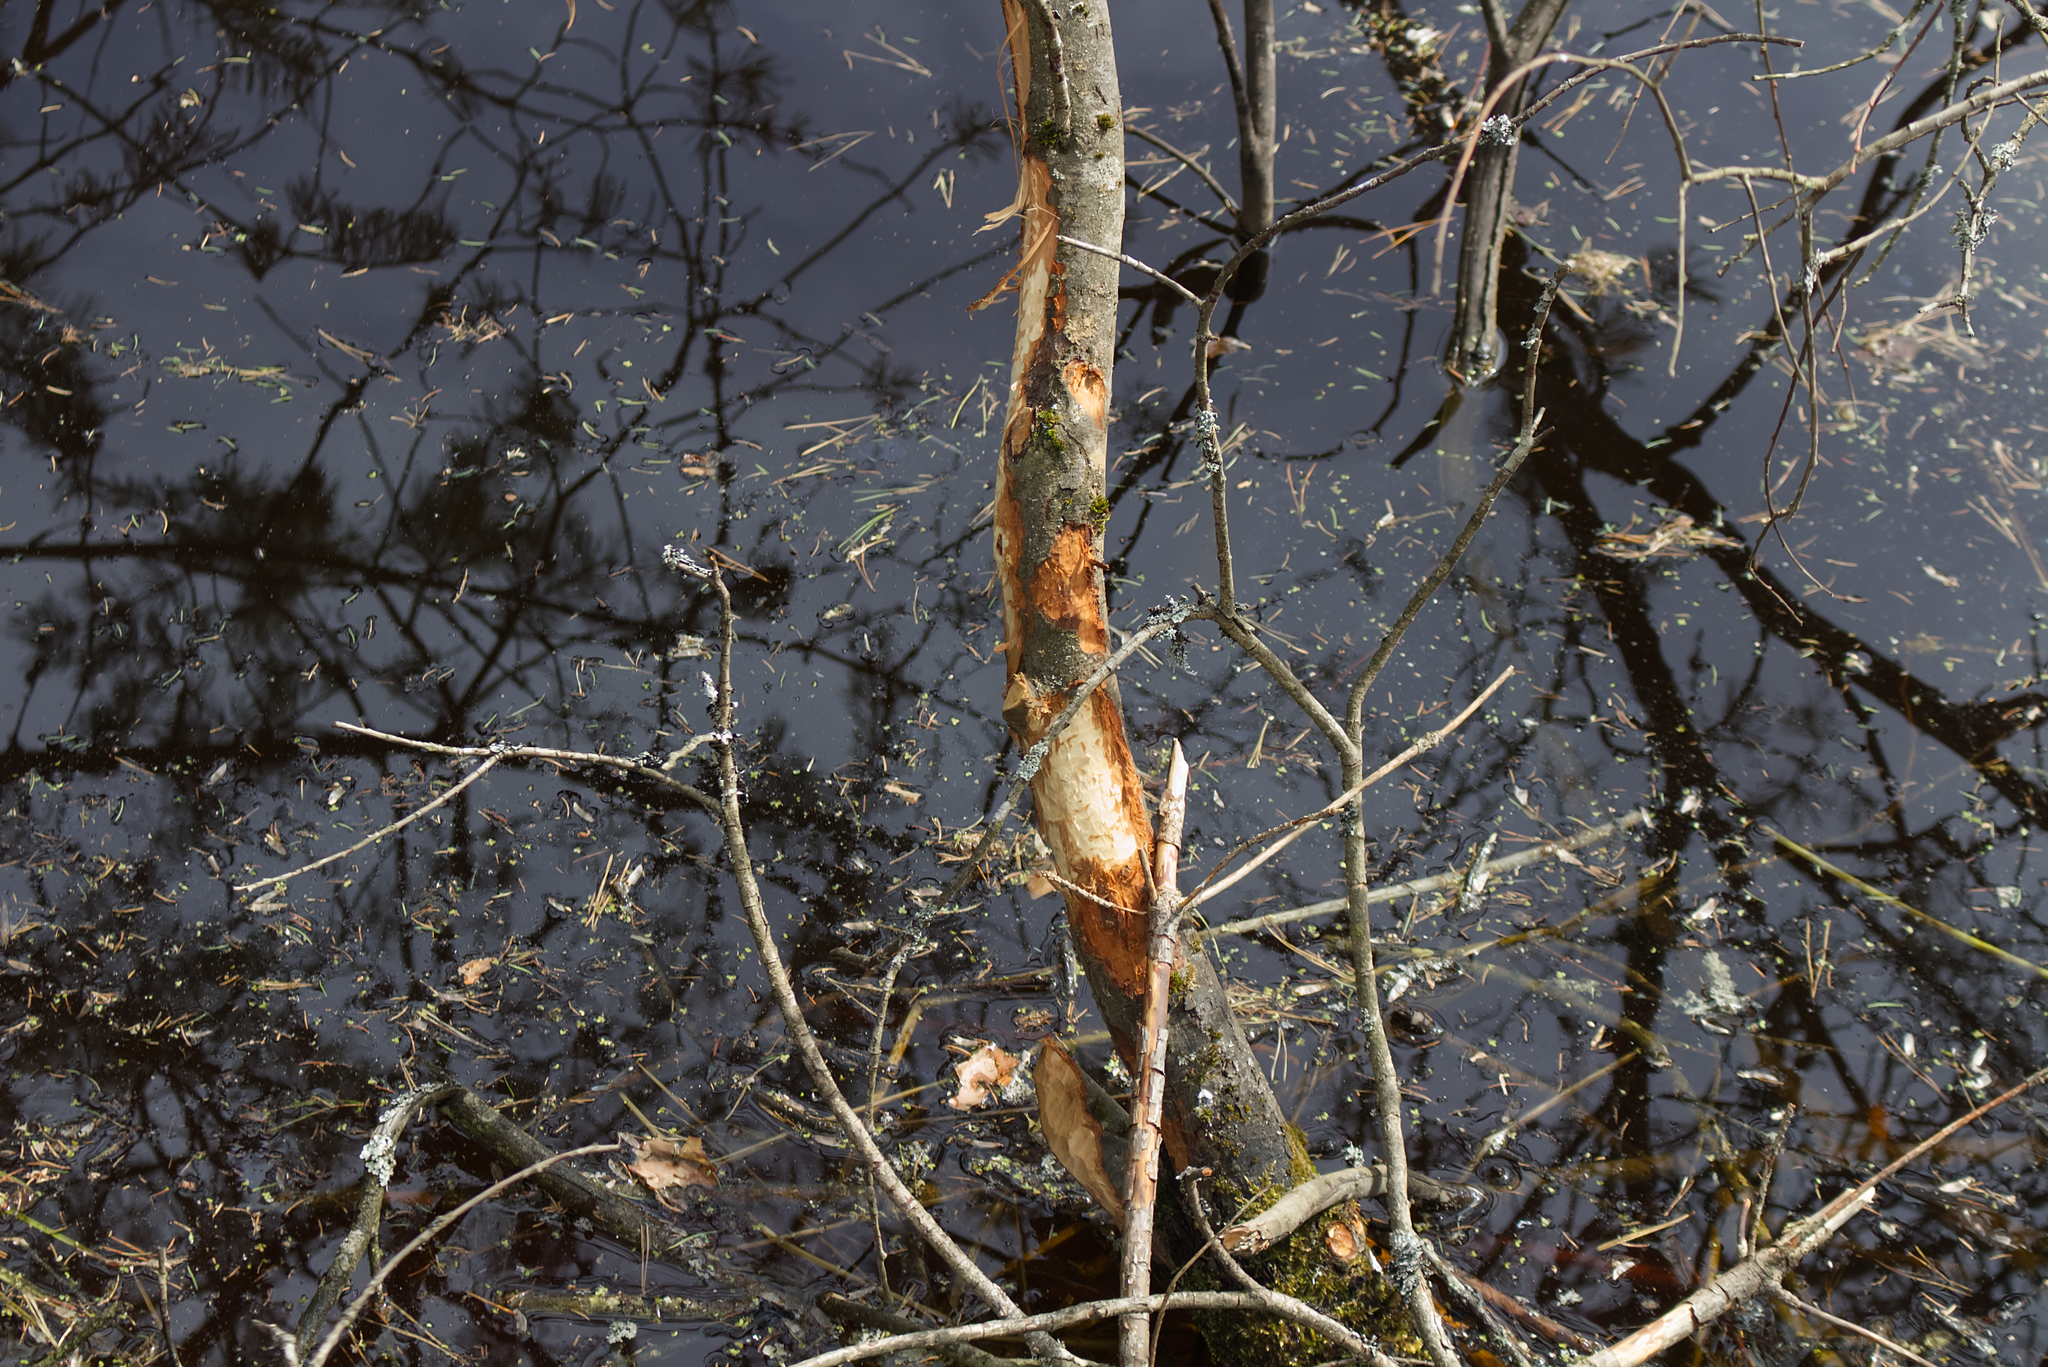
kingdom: Animalia
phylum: Chordata
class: Mammalia
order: Rodentia
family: Castoridae
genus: Castor
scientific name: Castor fiber
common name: Eurasian beaver
